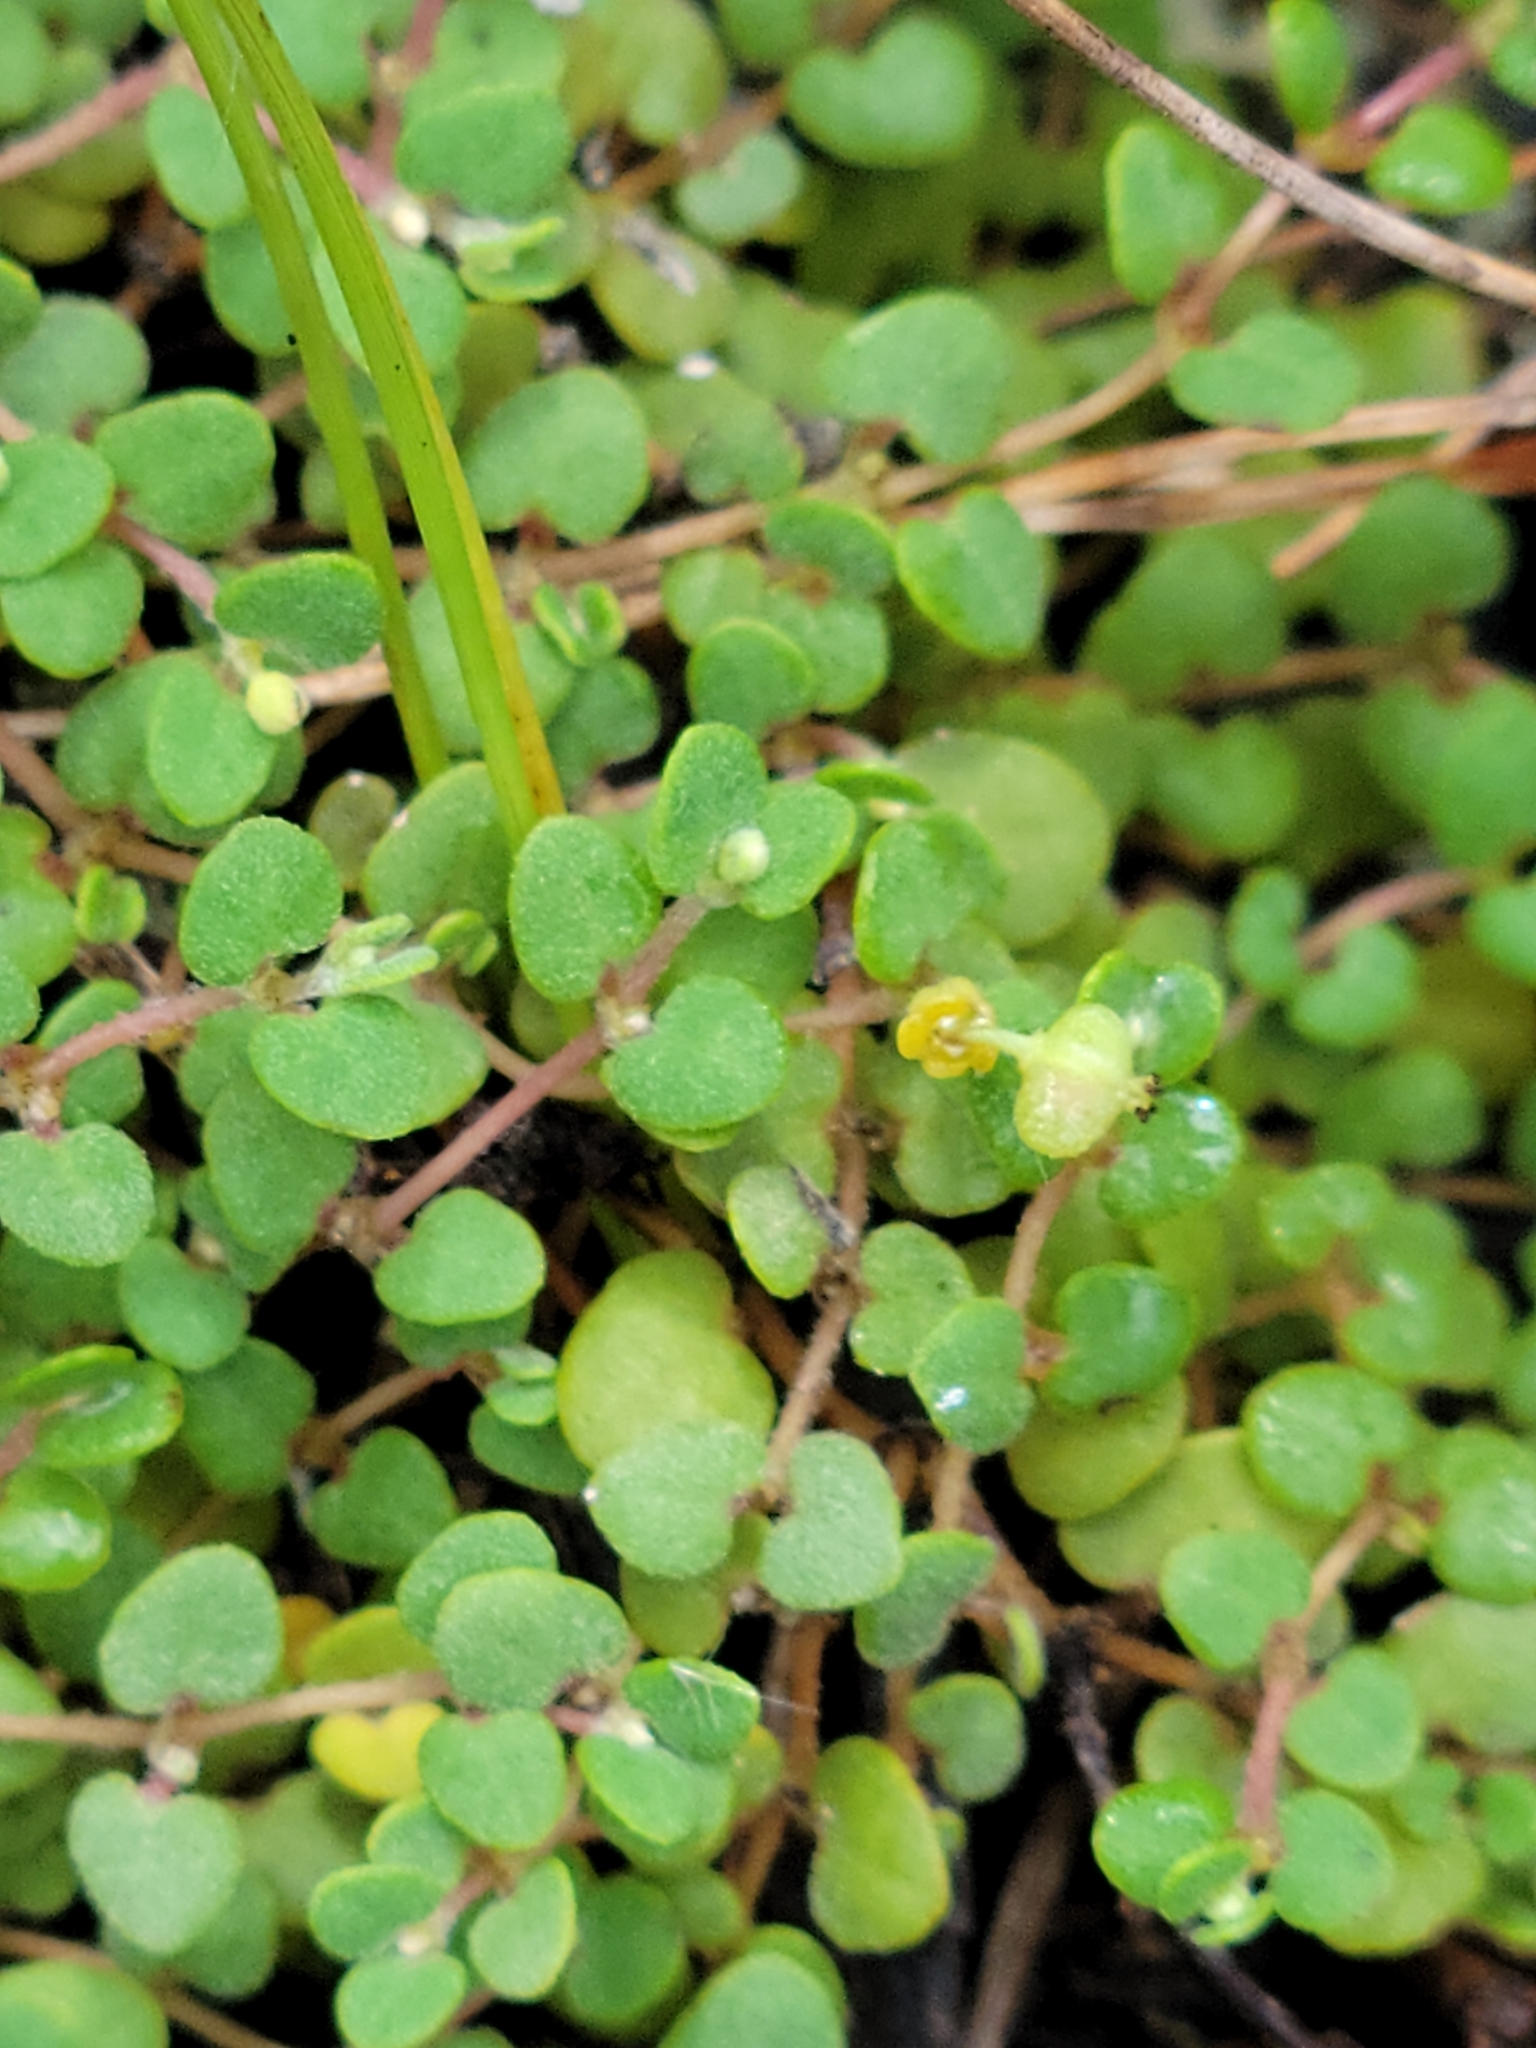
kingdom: Plantae
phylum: Tracheophyta
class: Magnoliopsida
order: Malpighiales
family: Euphorbiaceae
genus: Euphorbia
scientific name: Euphorbia deltoidea
